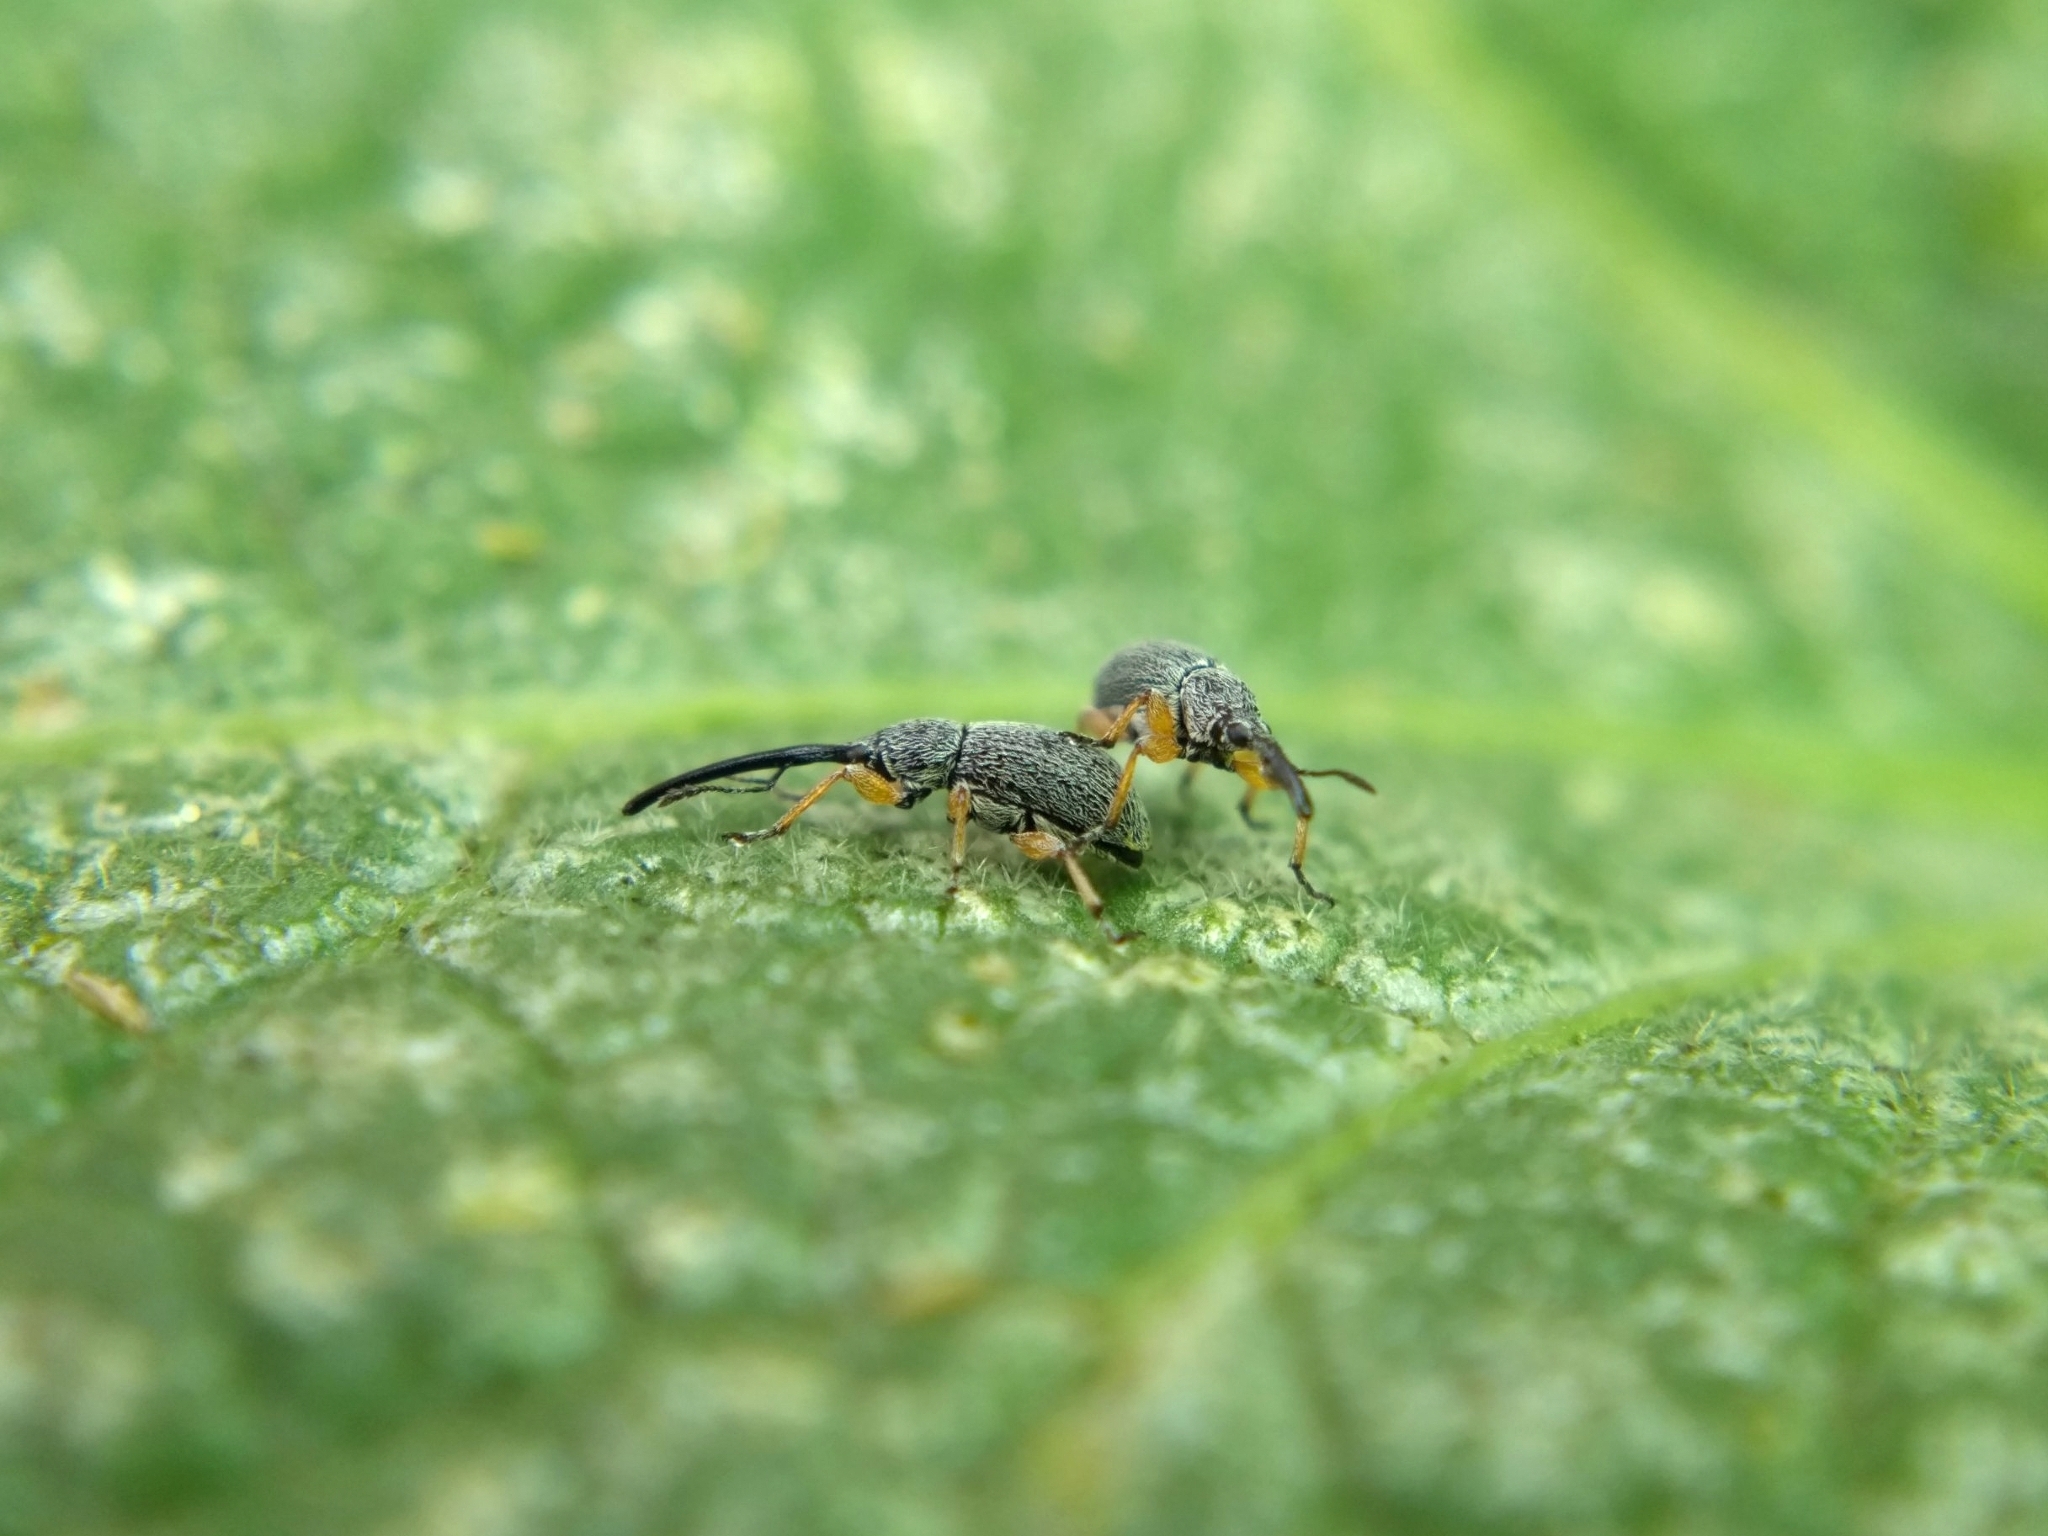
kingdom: Animalia
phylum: Arthropoda
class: Insecta
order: Coleoptera
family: Brentidae
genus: Rhopalapion
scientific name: Rhopalapion longirostre
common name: Hollyhock weevil
